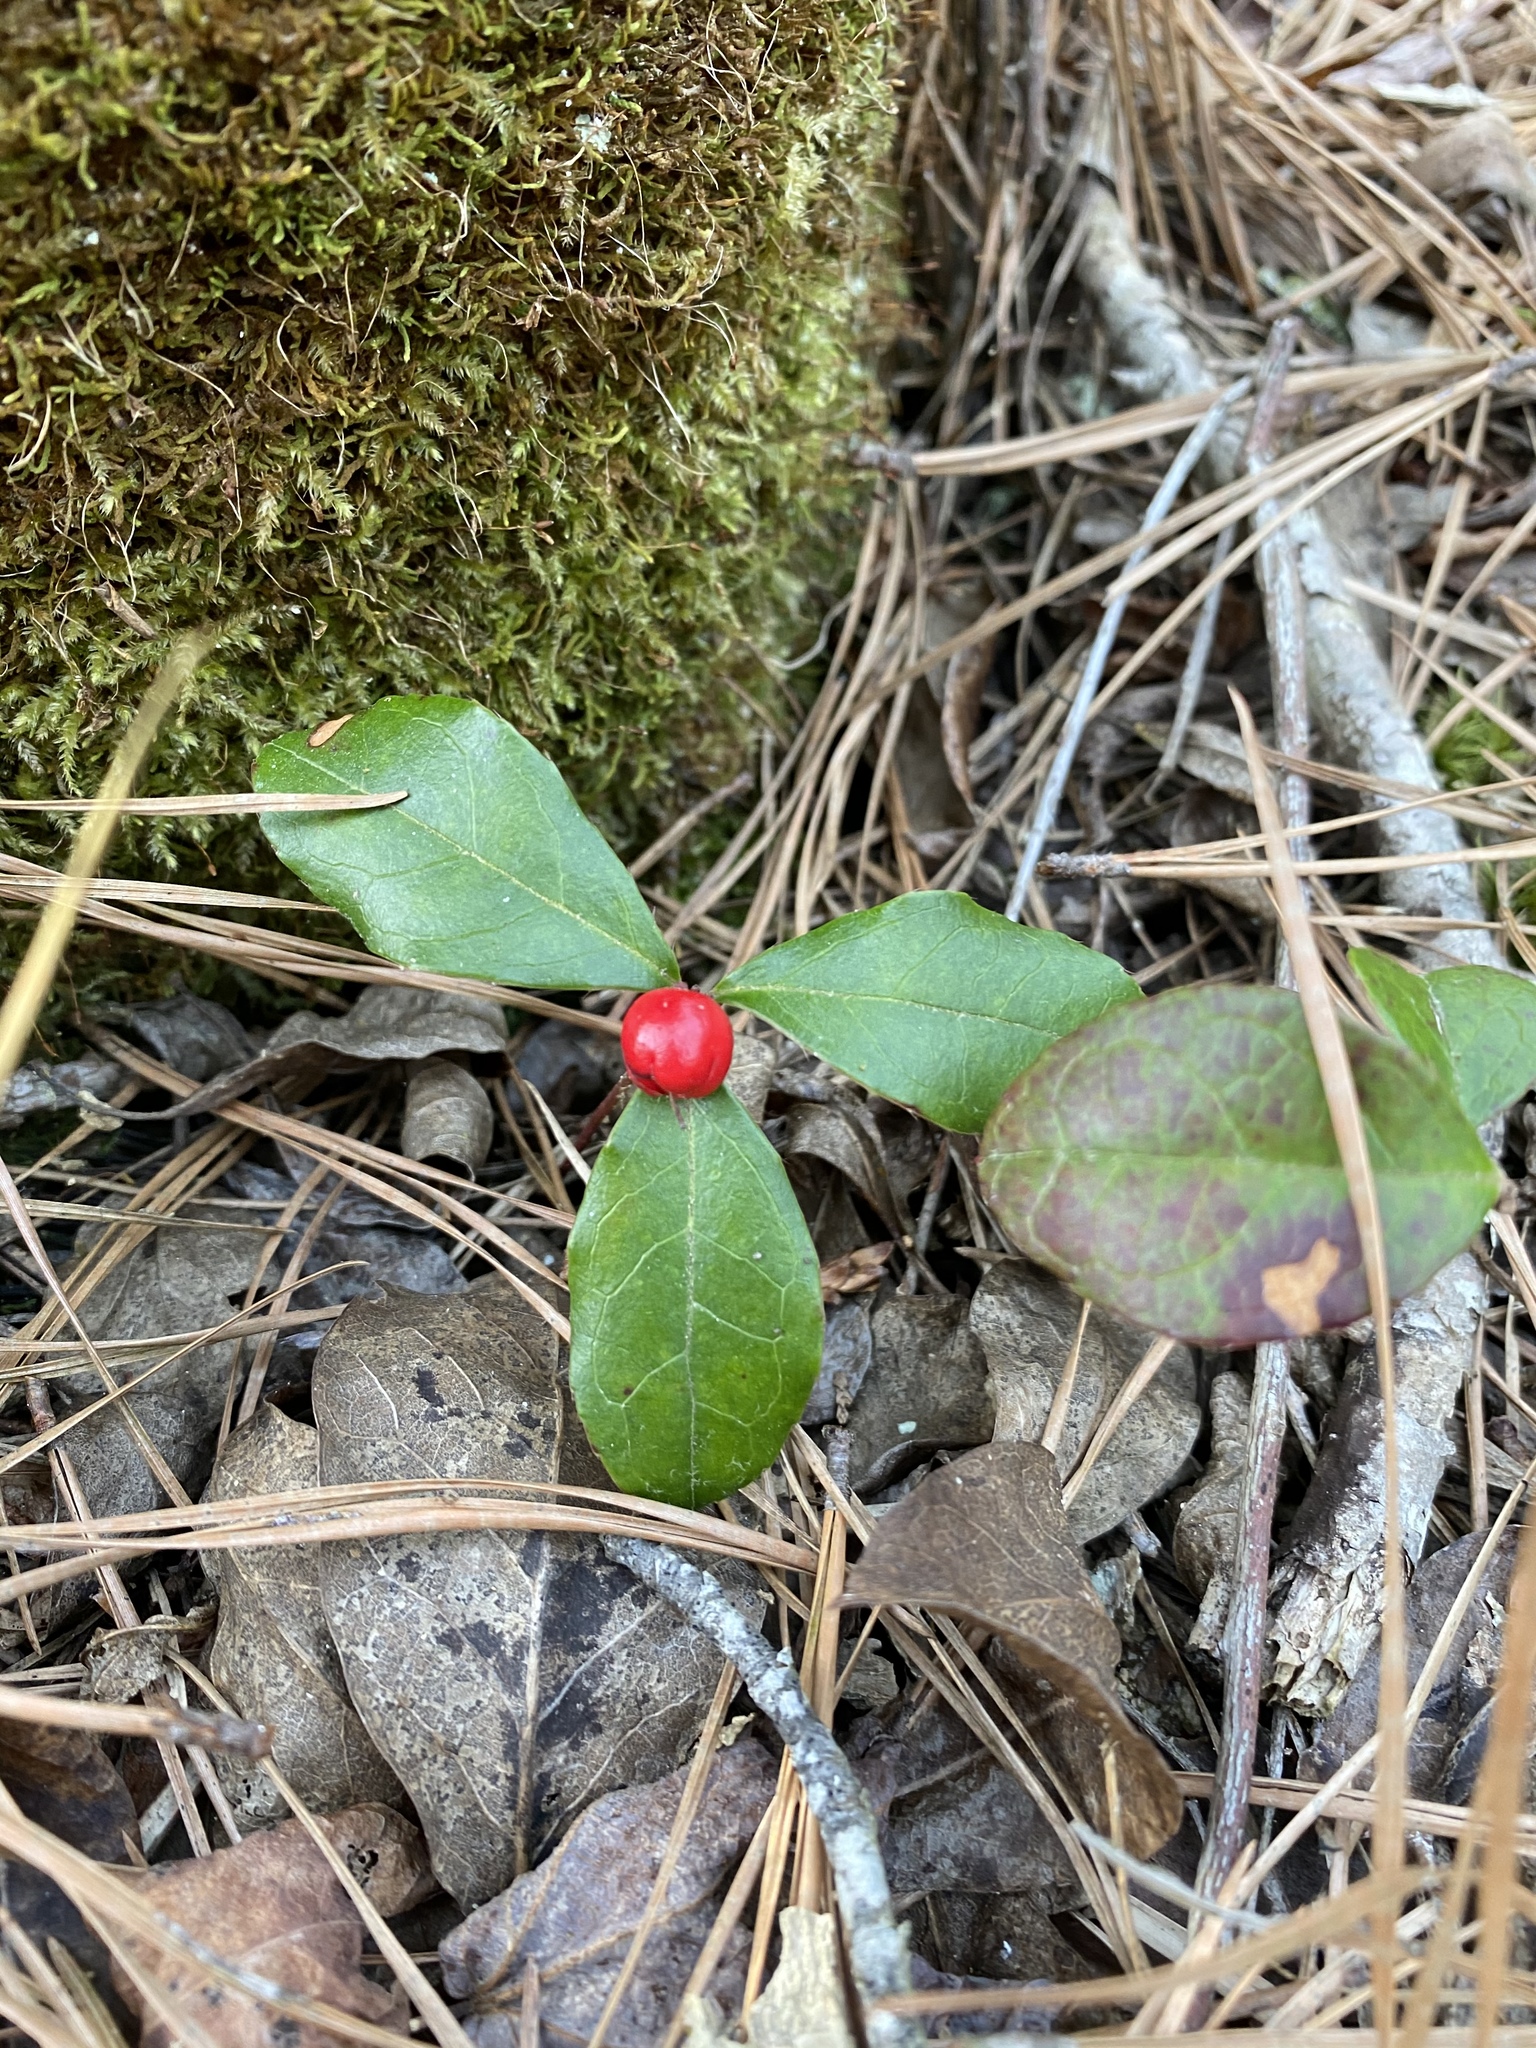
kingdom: Plantae
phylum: Tracheophyta
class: Magnoliopsida
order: Ericales
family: Ericaceae
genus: Gaultheria
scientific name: Gaultheria procumbens
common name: Checkerberry
